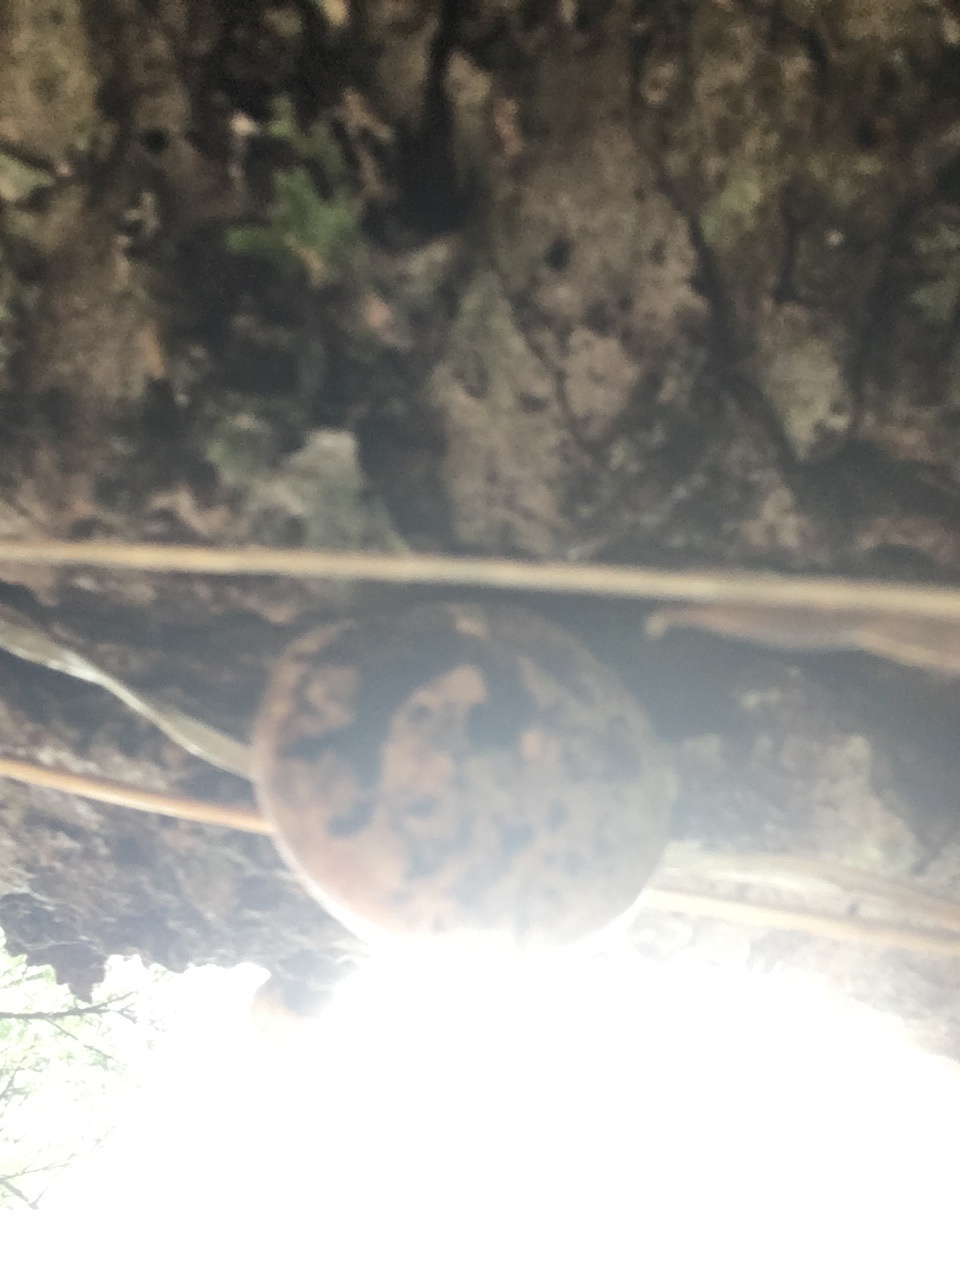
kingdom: Fungi
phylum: Basidiomycota
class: Agaricomycetes
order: Polyporales
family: Polyporaceae
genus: Cryptoporus
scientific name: Cryptoporus volvatus
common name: Veiled polypore
